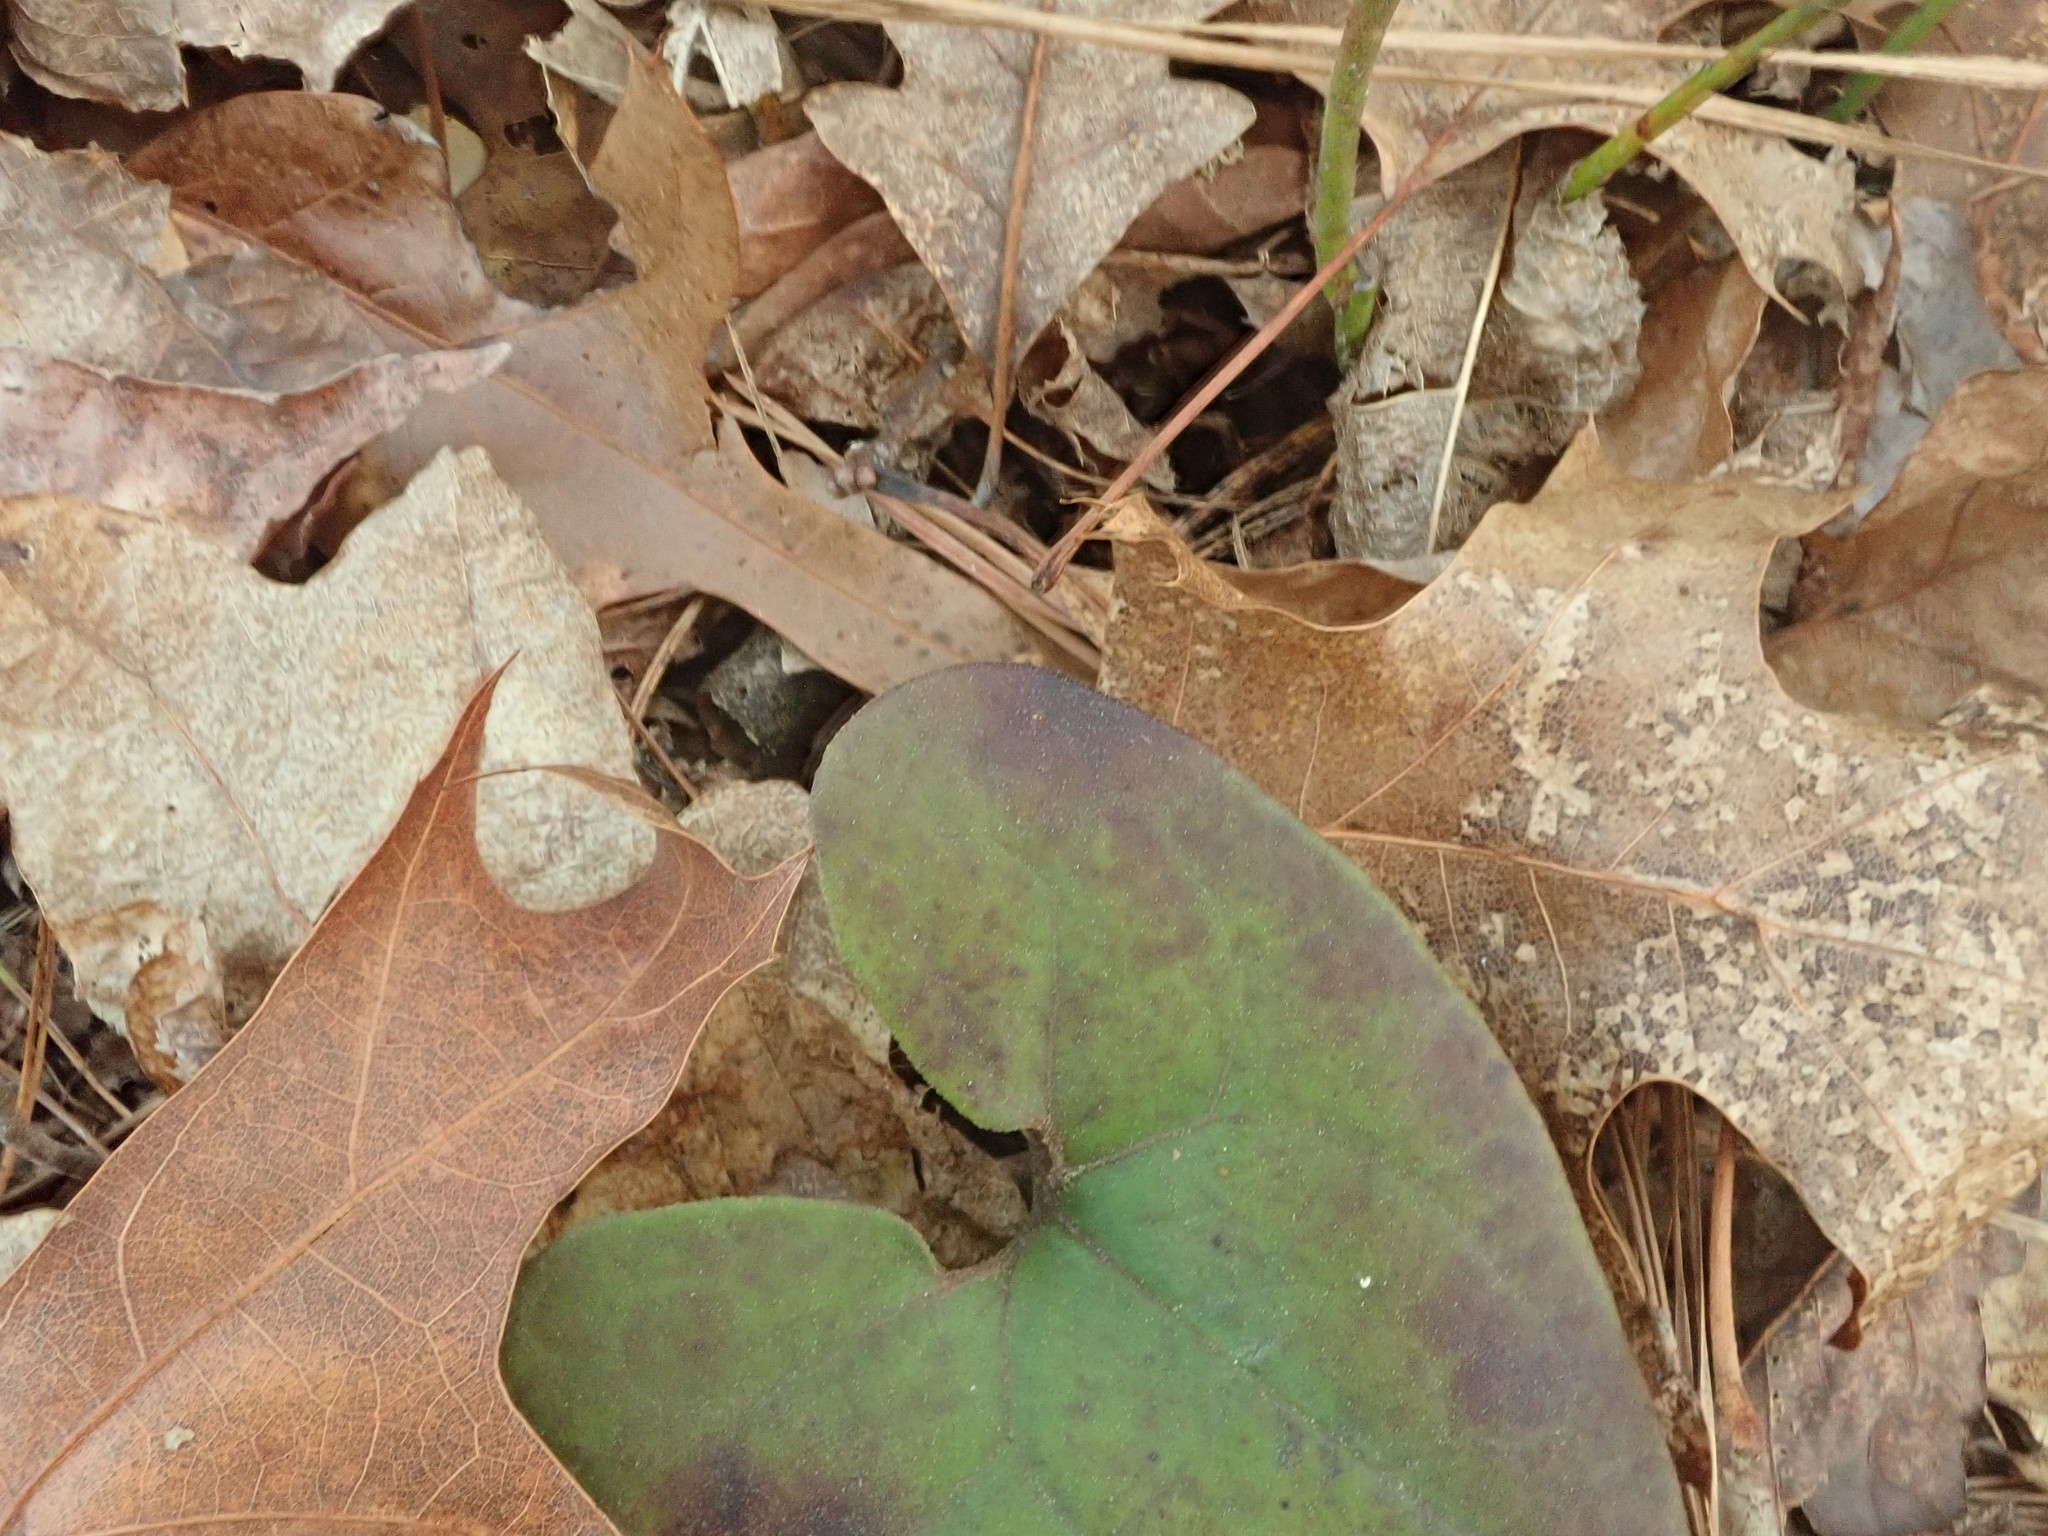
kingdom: Plantae
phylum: Tracheophyta
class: Magnoliopsida
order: Piperales
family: Aristolochiaceae
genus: Hexastylis
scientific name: Hexastylis arifolia
